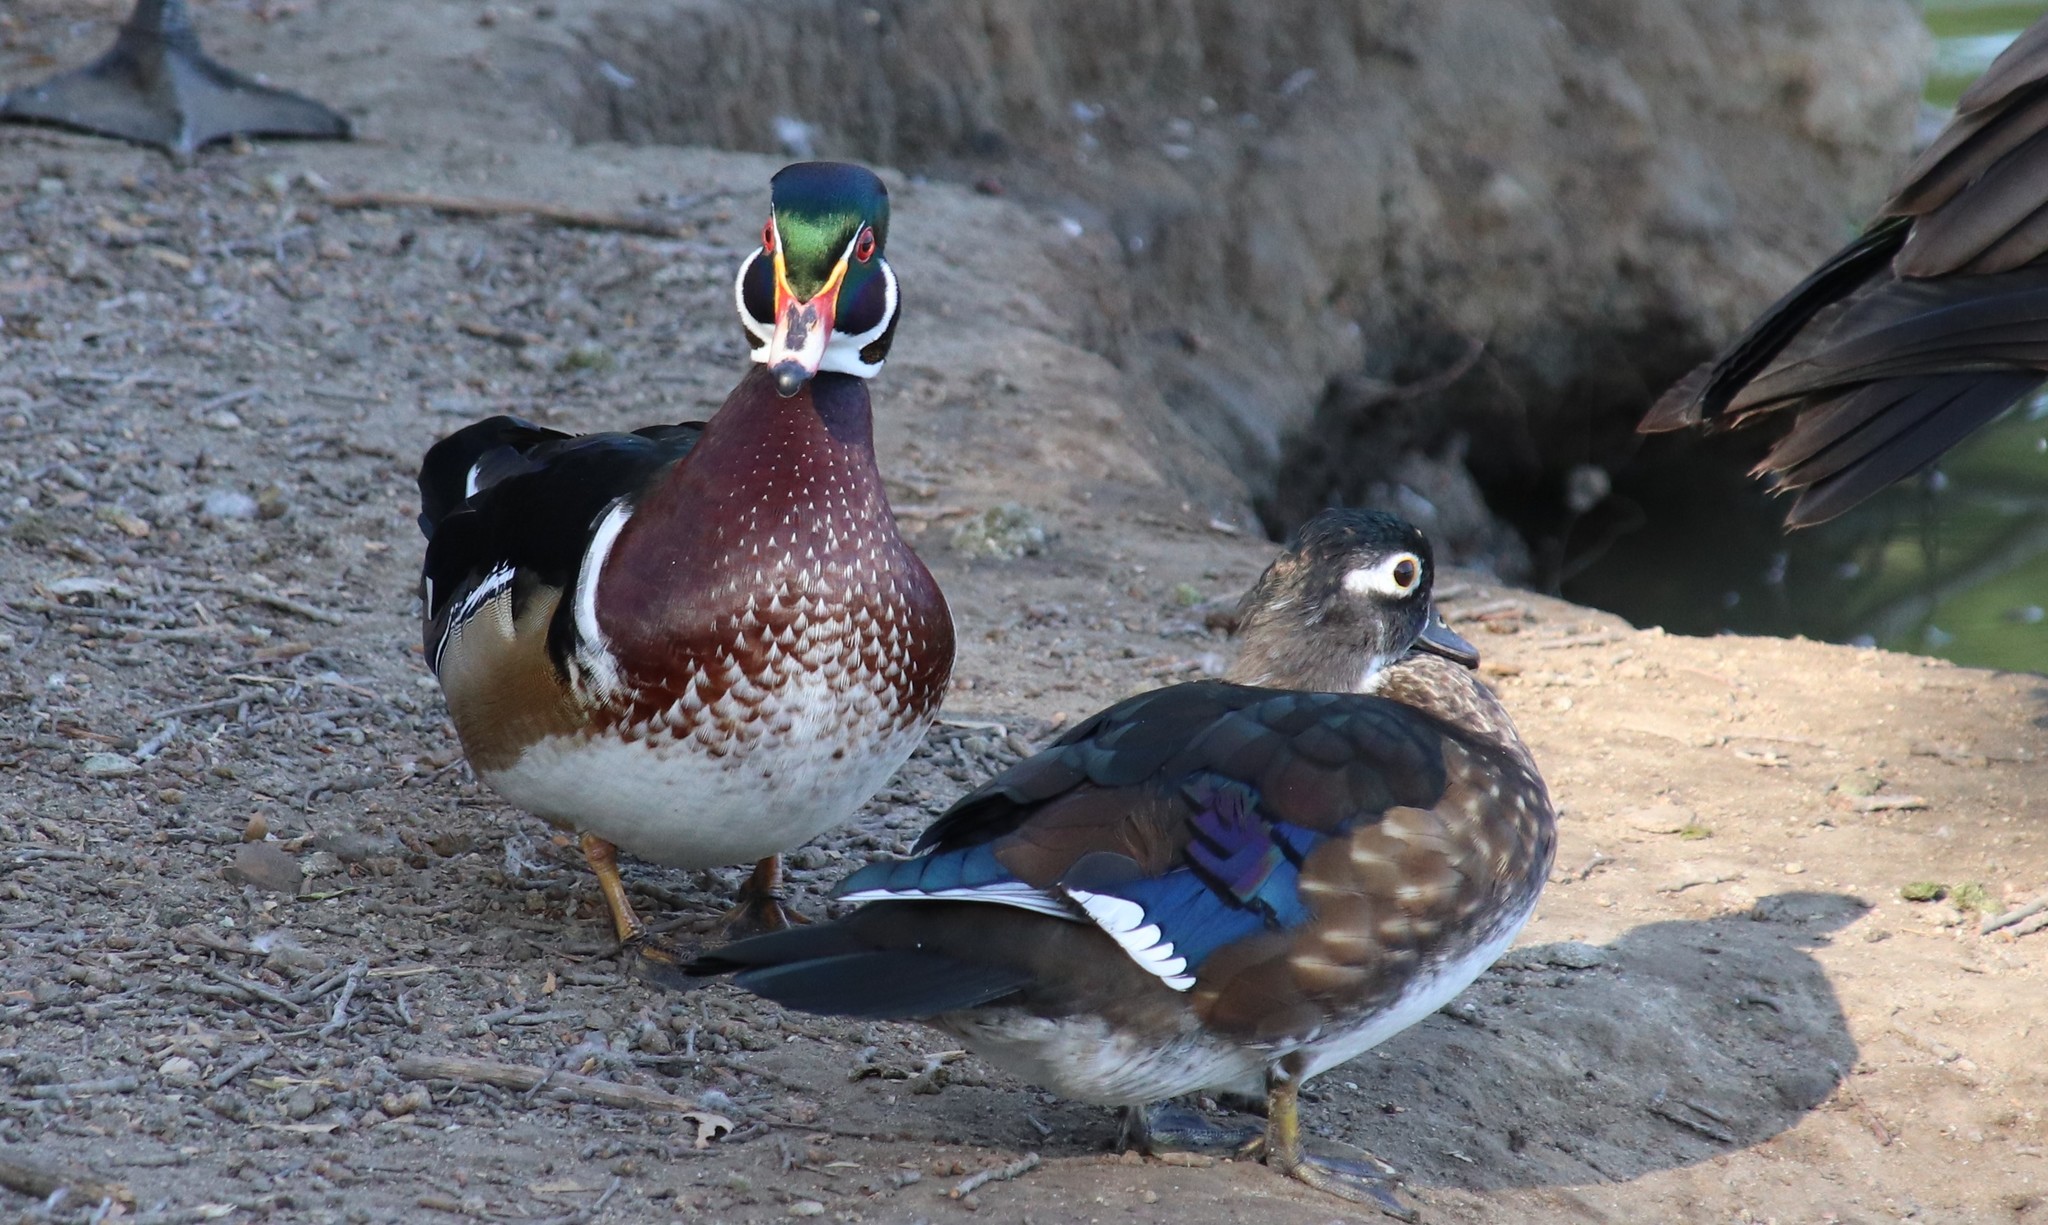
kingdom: Animalia
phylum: Chordata
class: Aves
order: Anseriformes
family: Anatidae
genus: Aix
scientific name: Aix sponsa
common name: Wood duck
